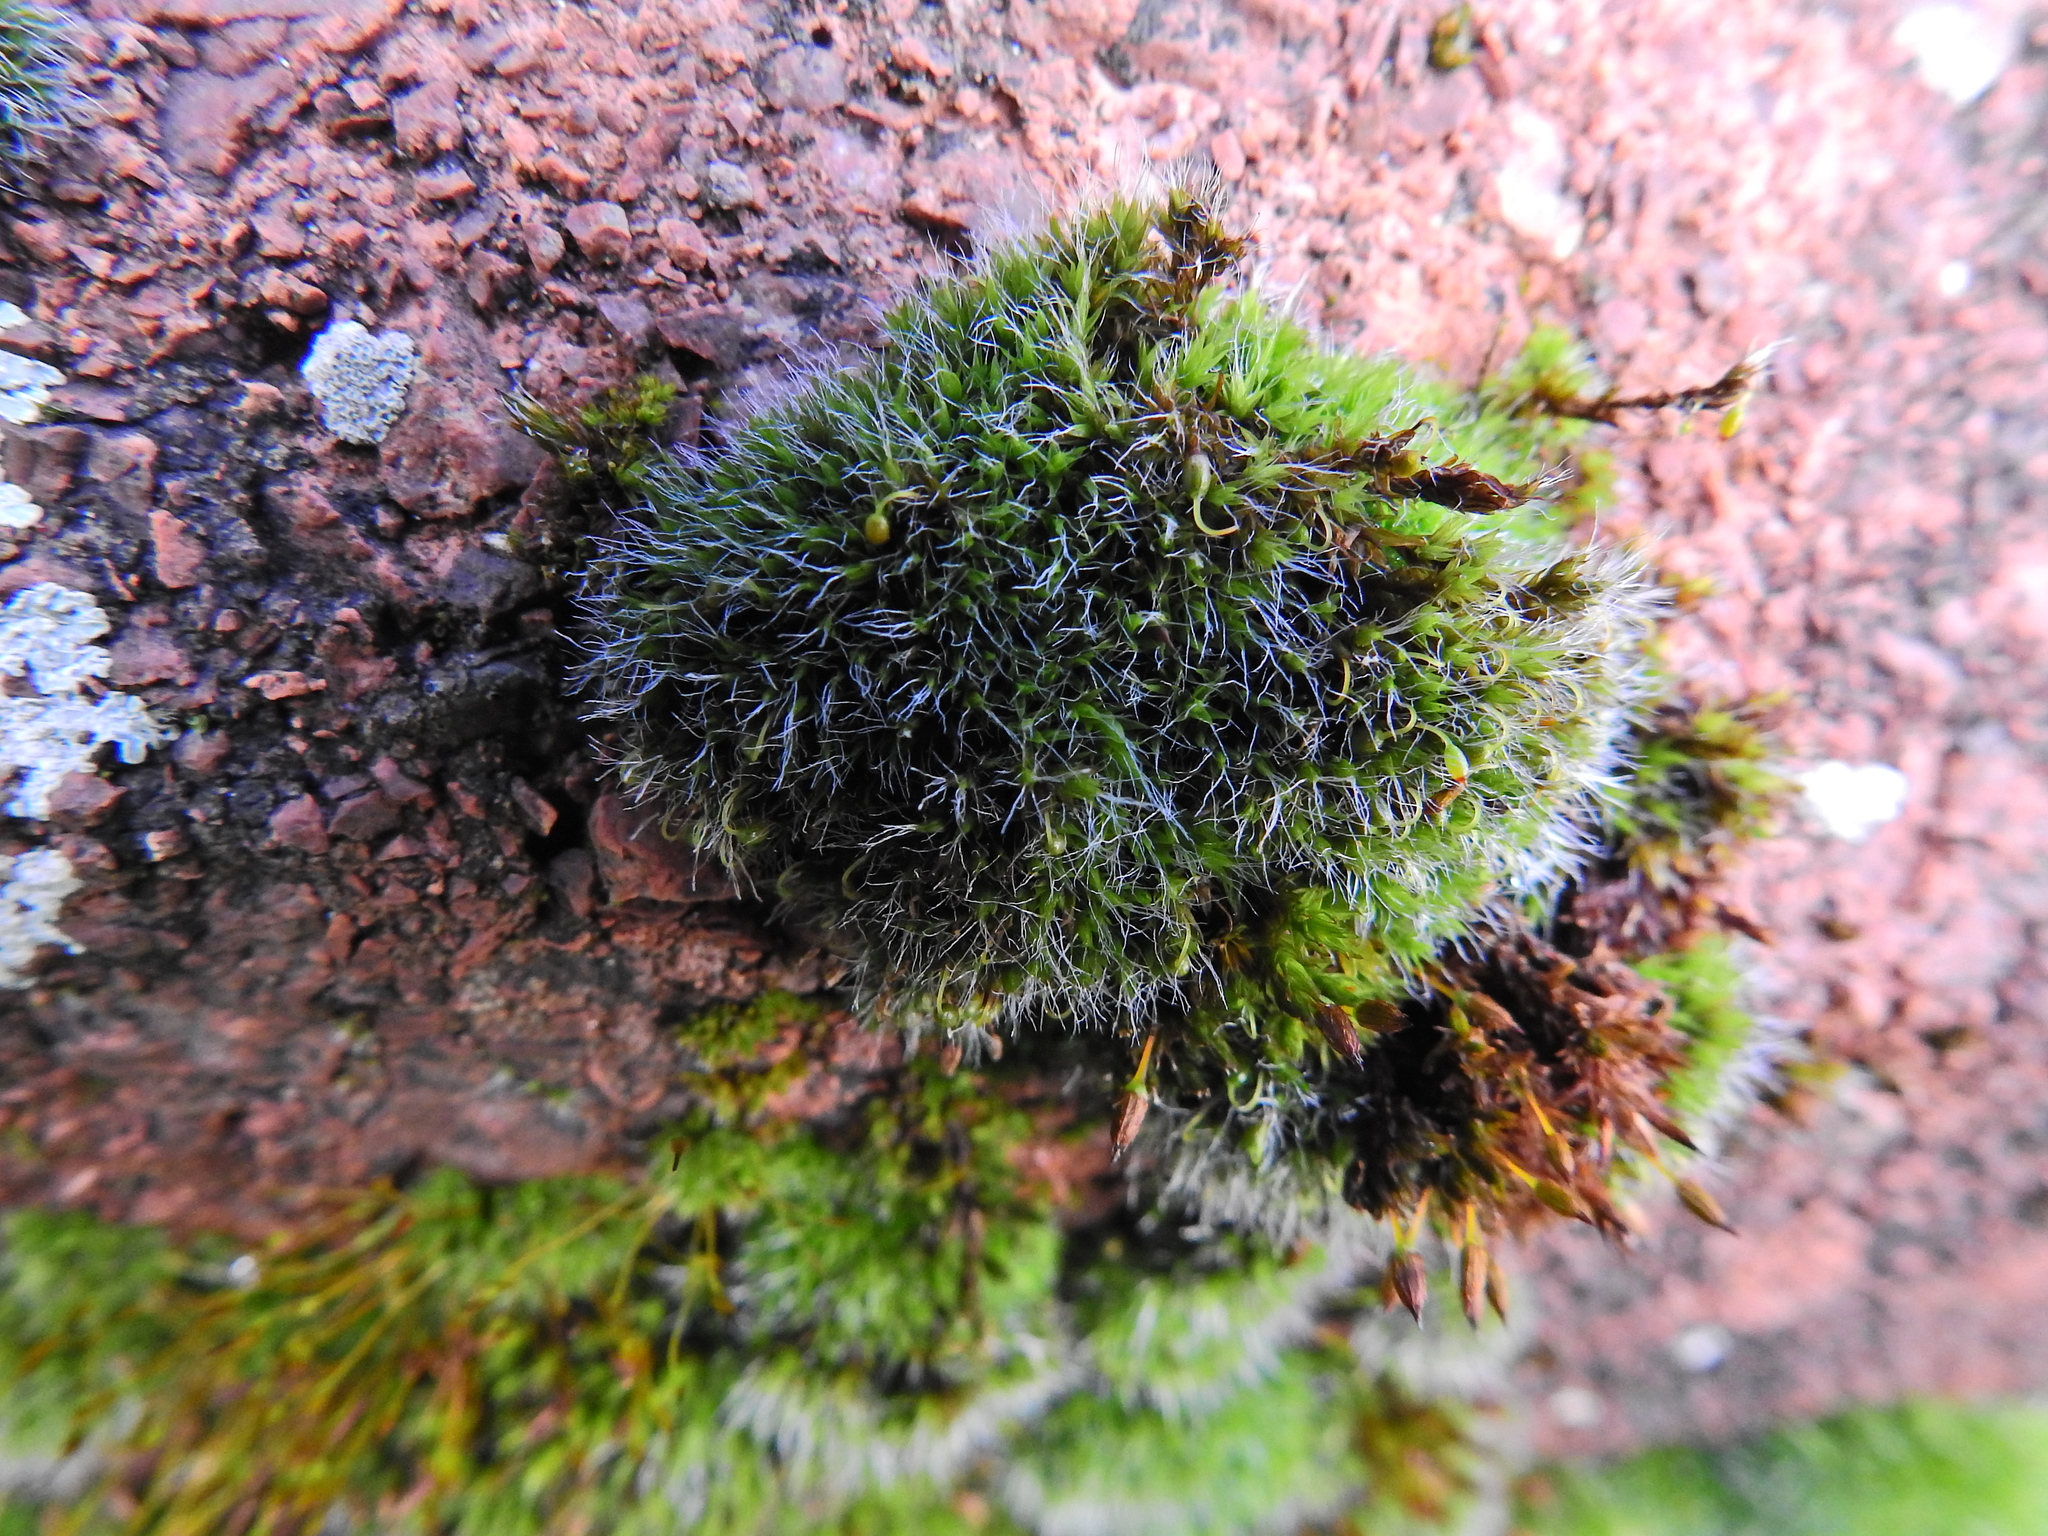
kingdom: Plantae
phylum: Bryophyta
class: Bryopsida
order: Grimmiales
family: Grimmiaceae
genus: Grimmia
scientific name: Grimmia pulvinata
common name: Grey-cushioned grimmia
